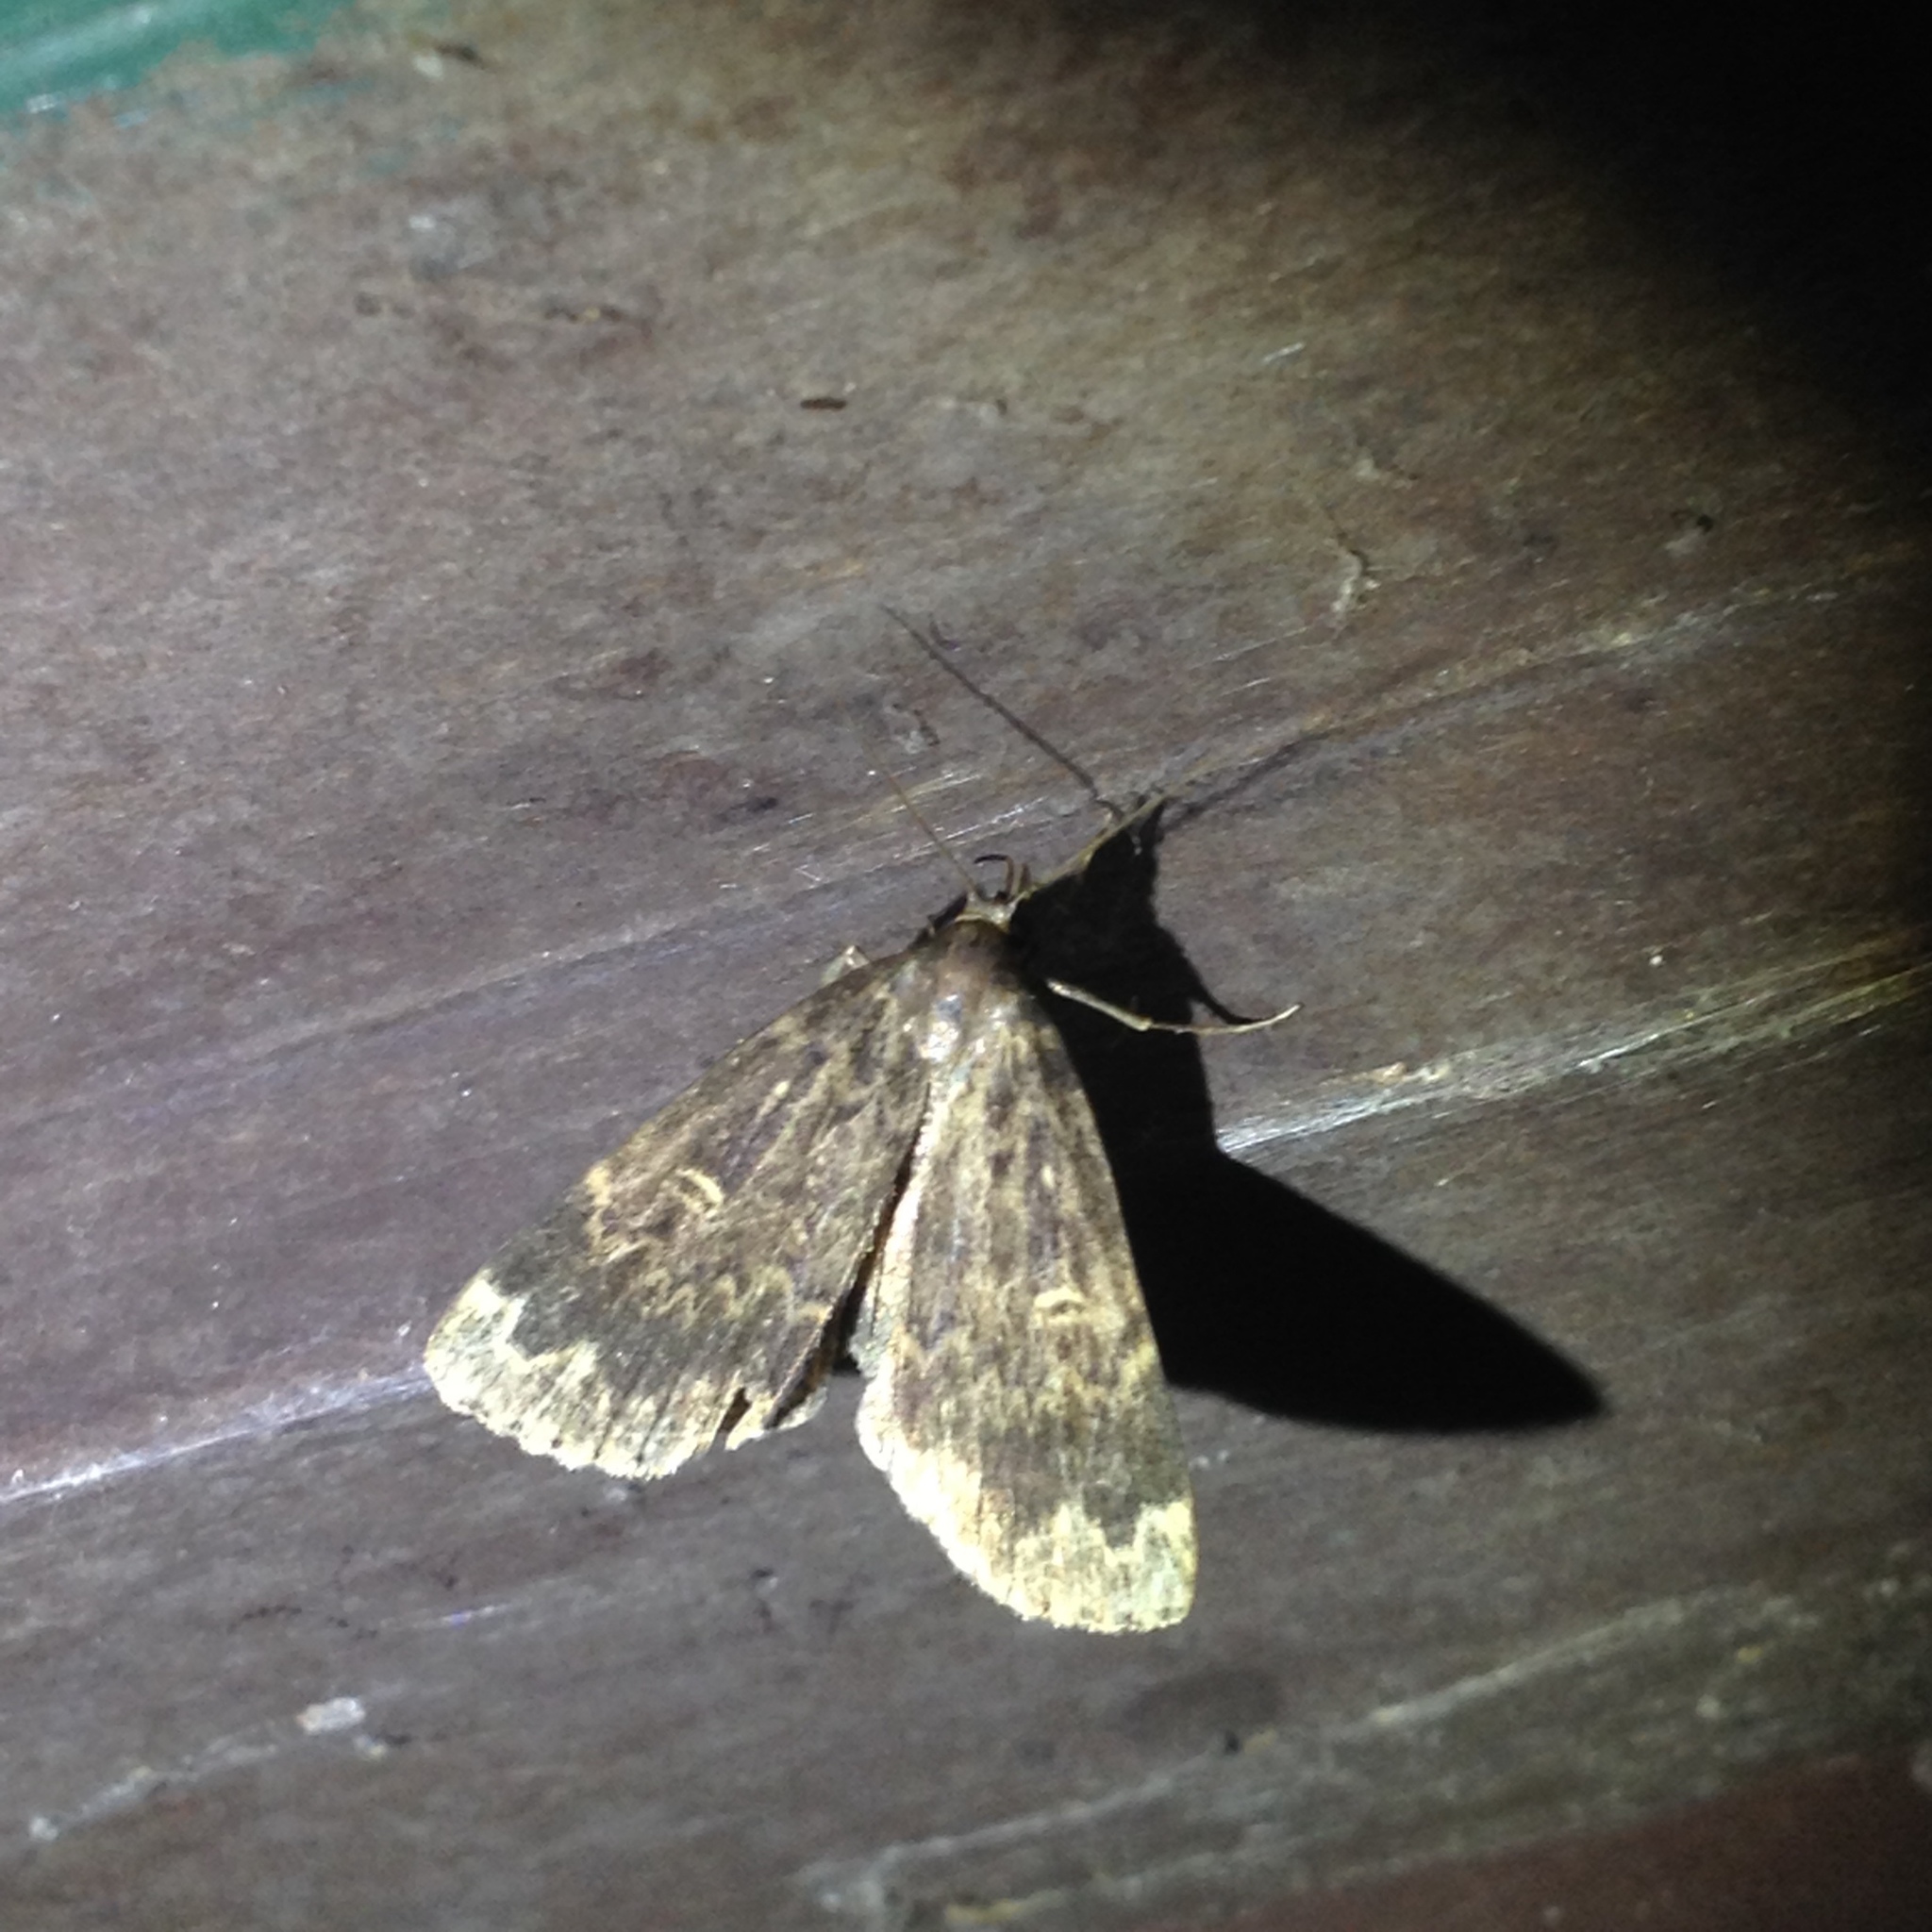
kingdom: Animalia
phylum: Arthropoda
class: Insecta
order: Lepidoptera
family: Erebidae
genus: Idia
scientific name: Idia lubricalis
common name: Twin-striped tabby
